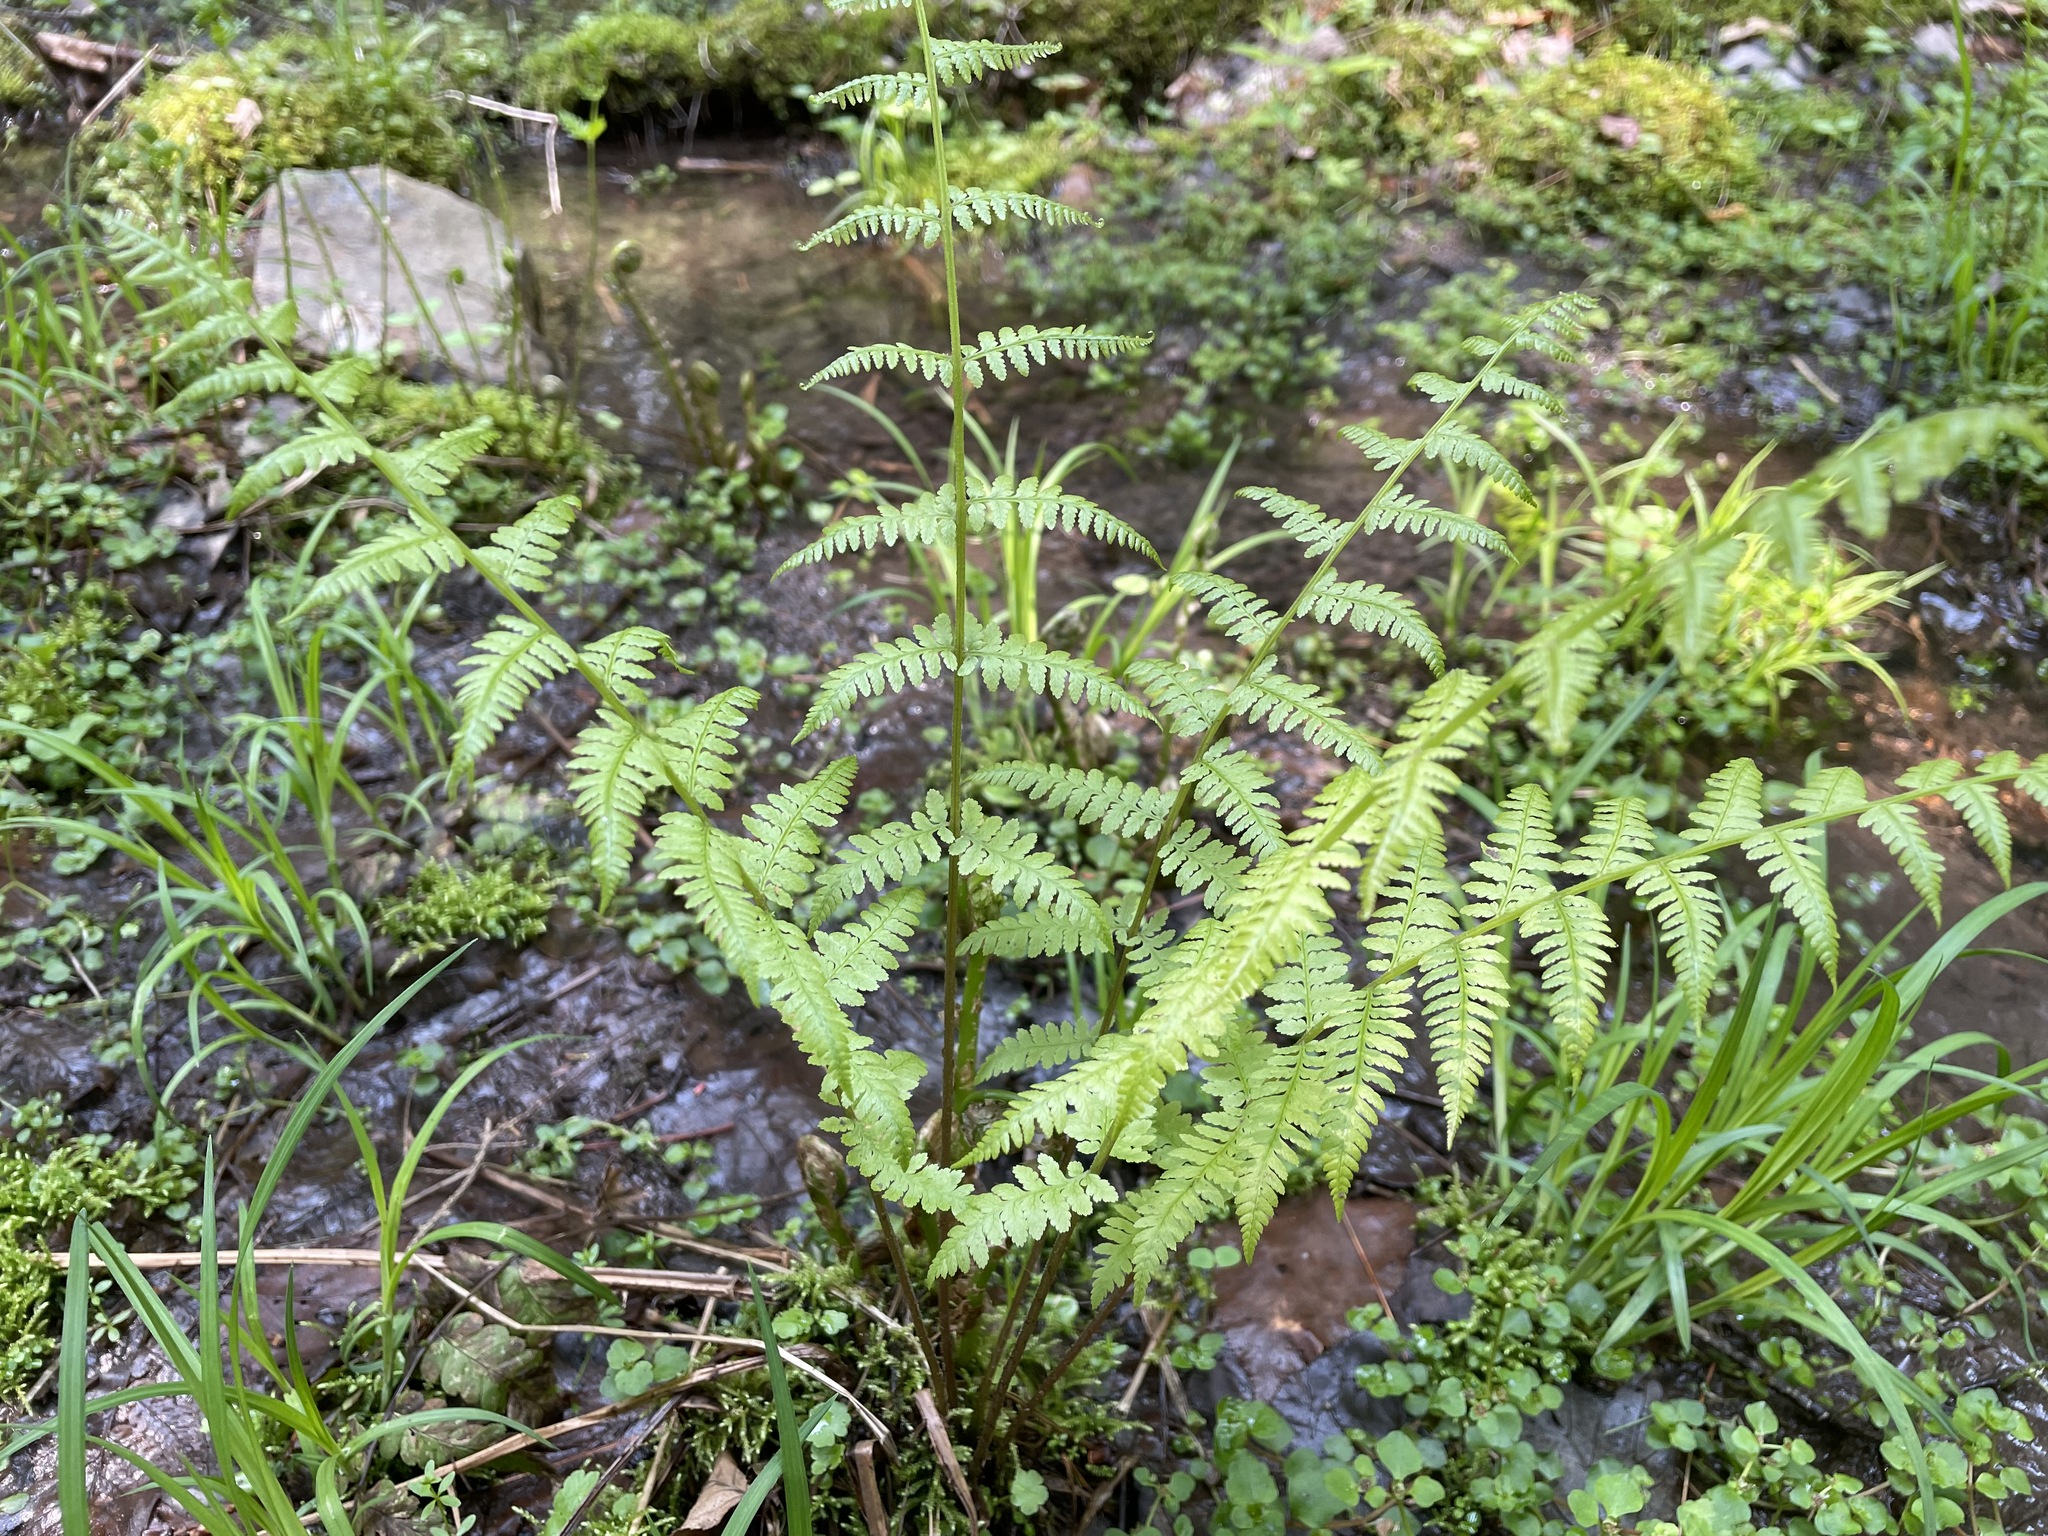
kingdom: Plantae
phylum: Tracheophyta
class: Polypodiopsida
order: Polypodiales
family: Athyriaceae
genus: Athyrium
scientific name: Athyrium angustum
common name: Northern lady fern
